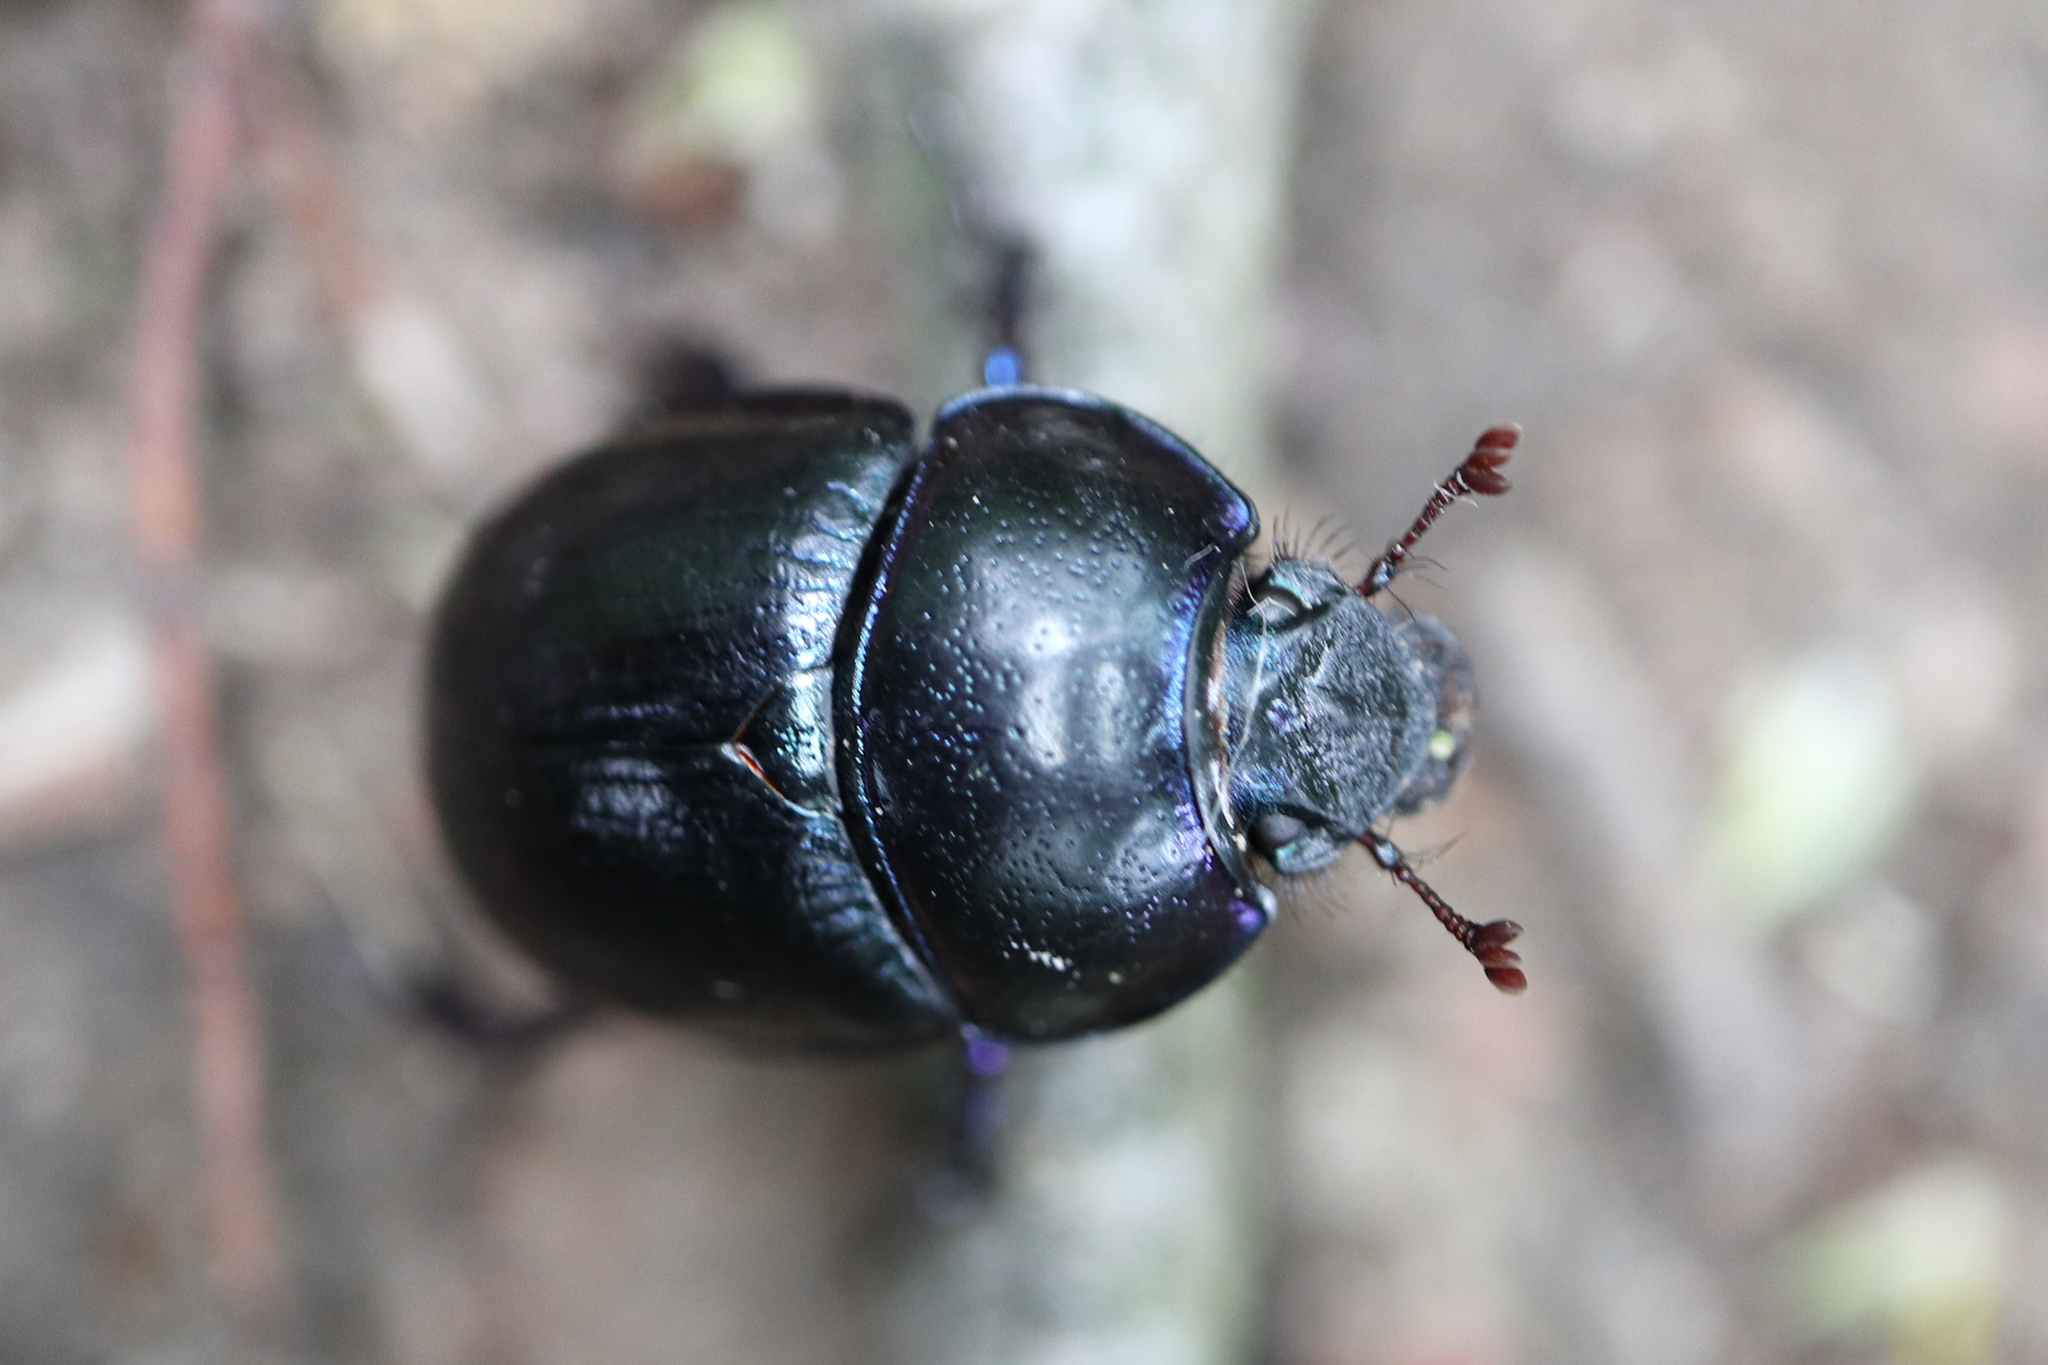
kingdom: Animalia
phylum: Arthropoda
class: Insecta
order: Coleoptera
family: Geotrupidae
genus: Anoplotrupes
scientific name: Anoplotrupes stercorosus
